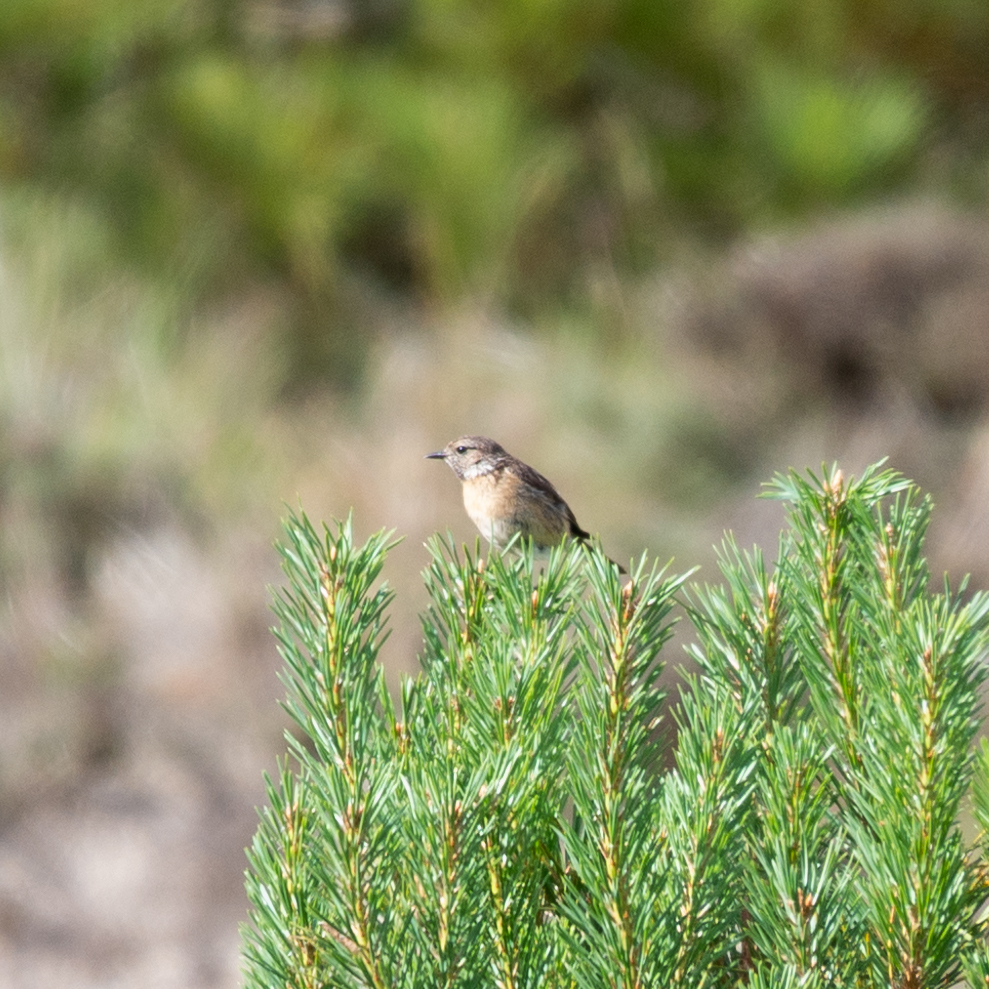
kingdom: Animalia
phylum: Chordata
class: Aves
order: Passeriformes
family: Muscicapidae
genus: Saxicola
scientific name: Saxicola rubicola
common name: European stonechat
